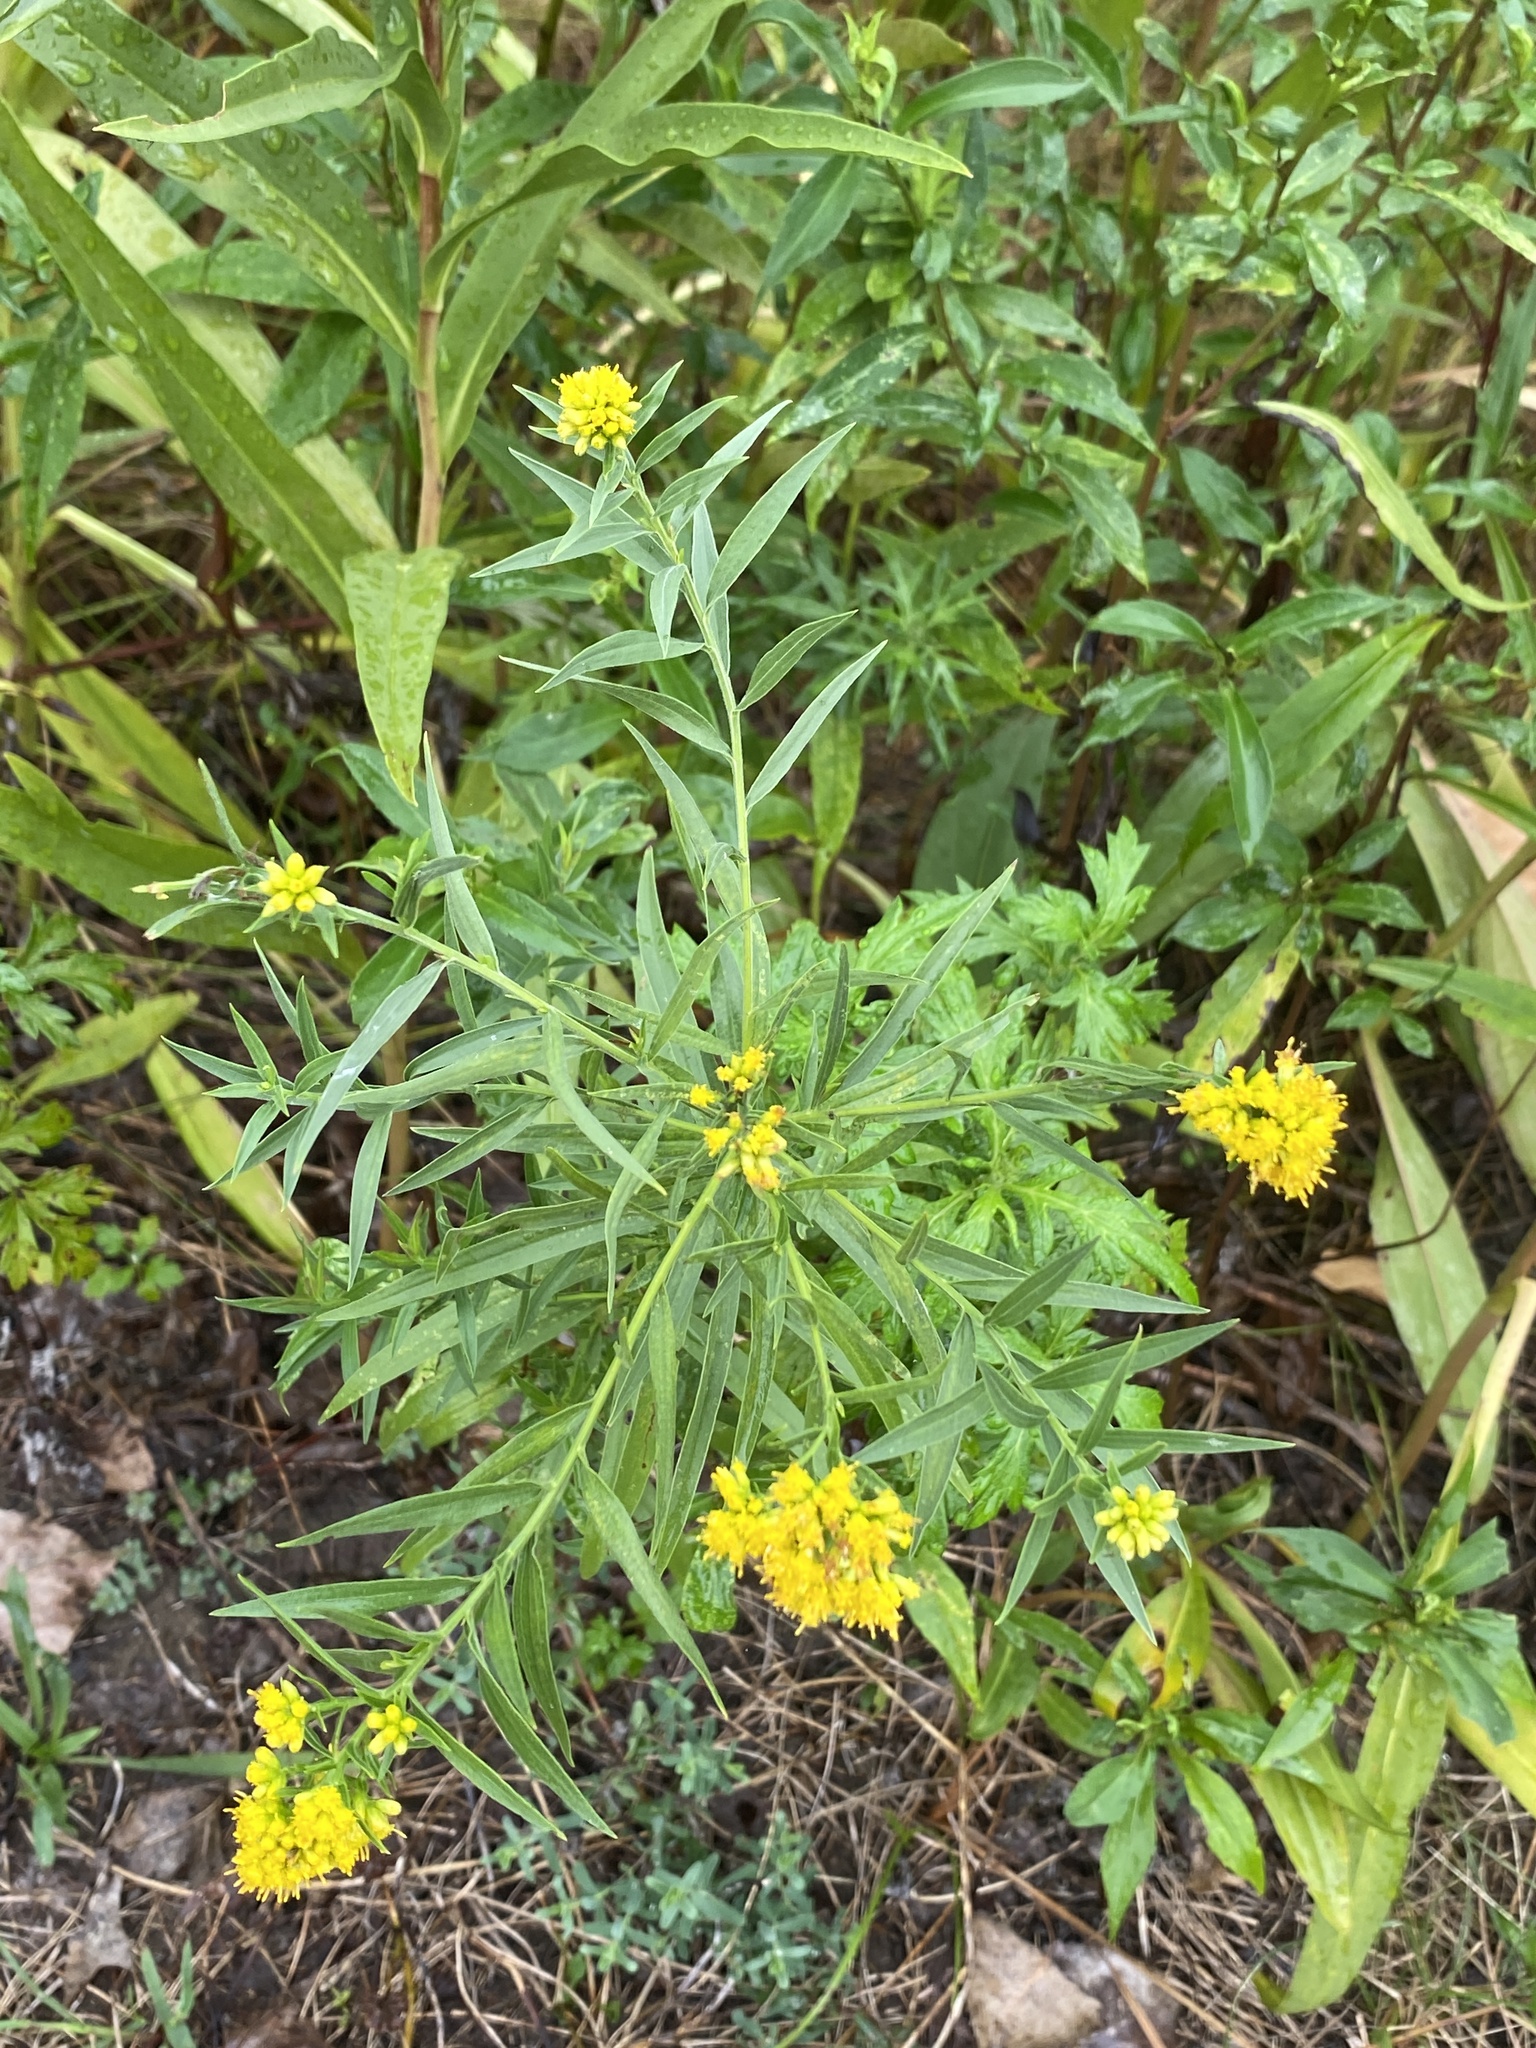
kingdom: Plantae
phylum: Tracheophyta
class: Magnoliopsida
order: Asterales
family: Asteraceae
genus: Euthamia
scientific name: Euthamia graminifolia
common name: Common goldentop
